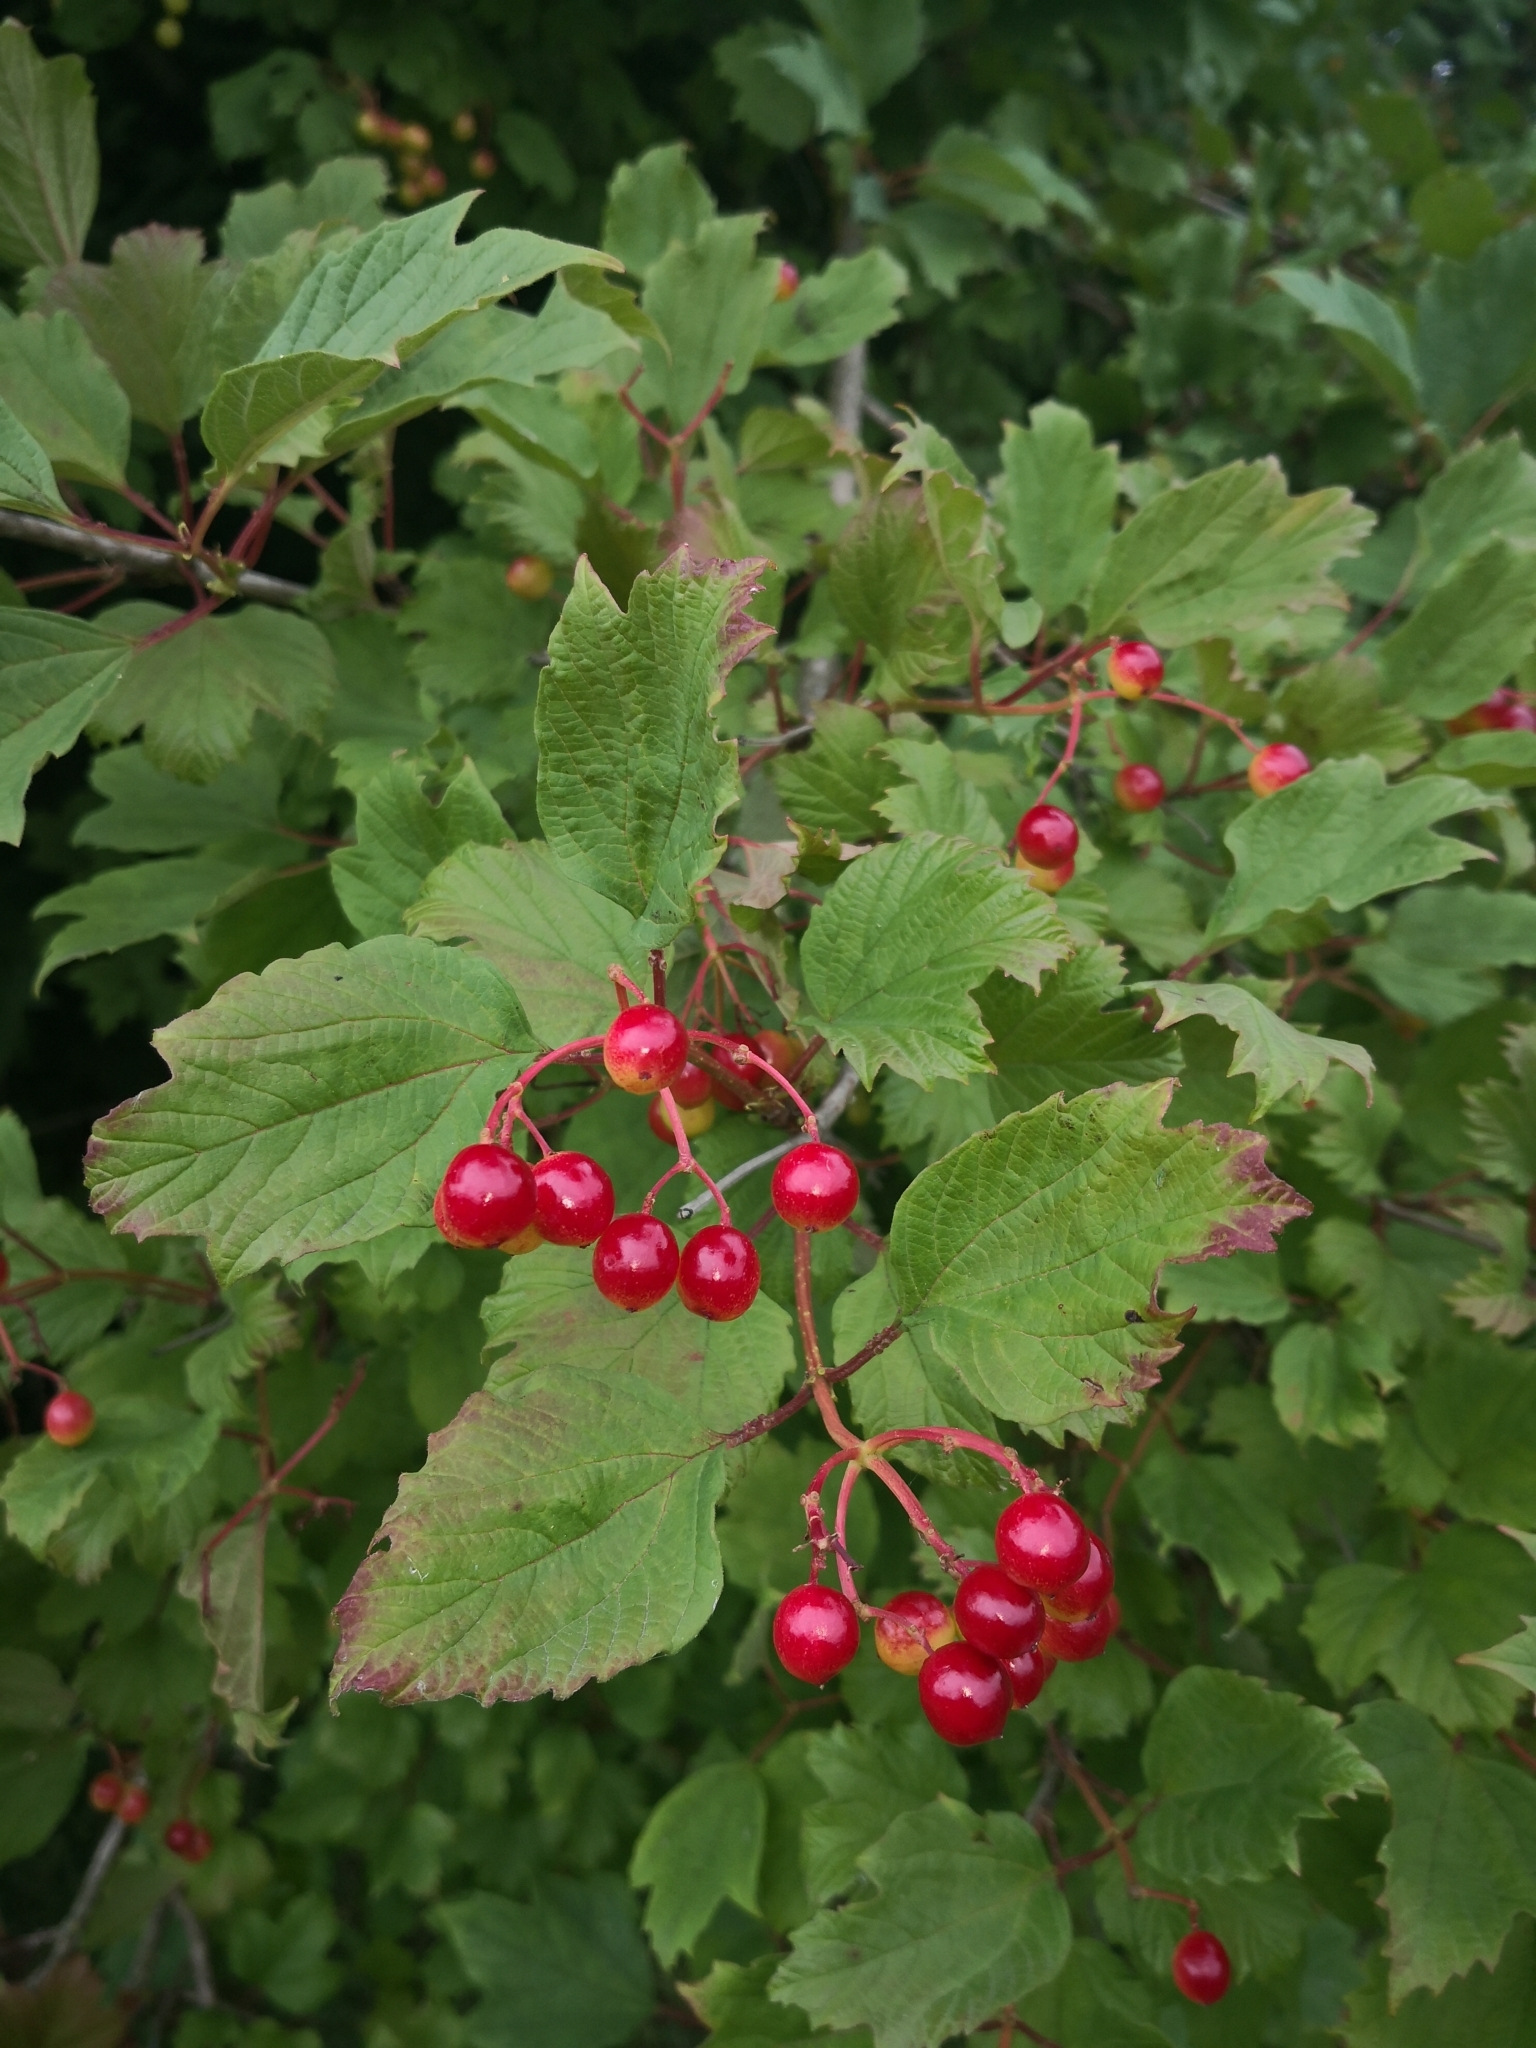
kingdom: Plantae
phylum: Tracheophyta
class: Magnoliopsida
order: Dipsacales
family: Viburnaceae
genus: Viburnum
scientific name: Viburnum opulus
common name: Guelder-rose
